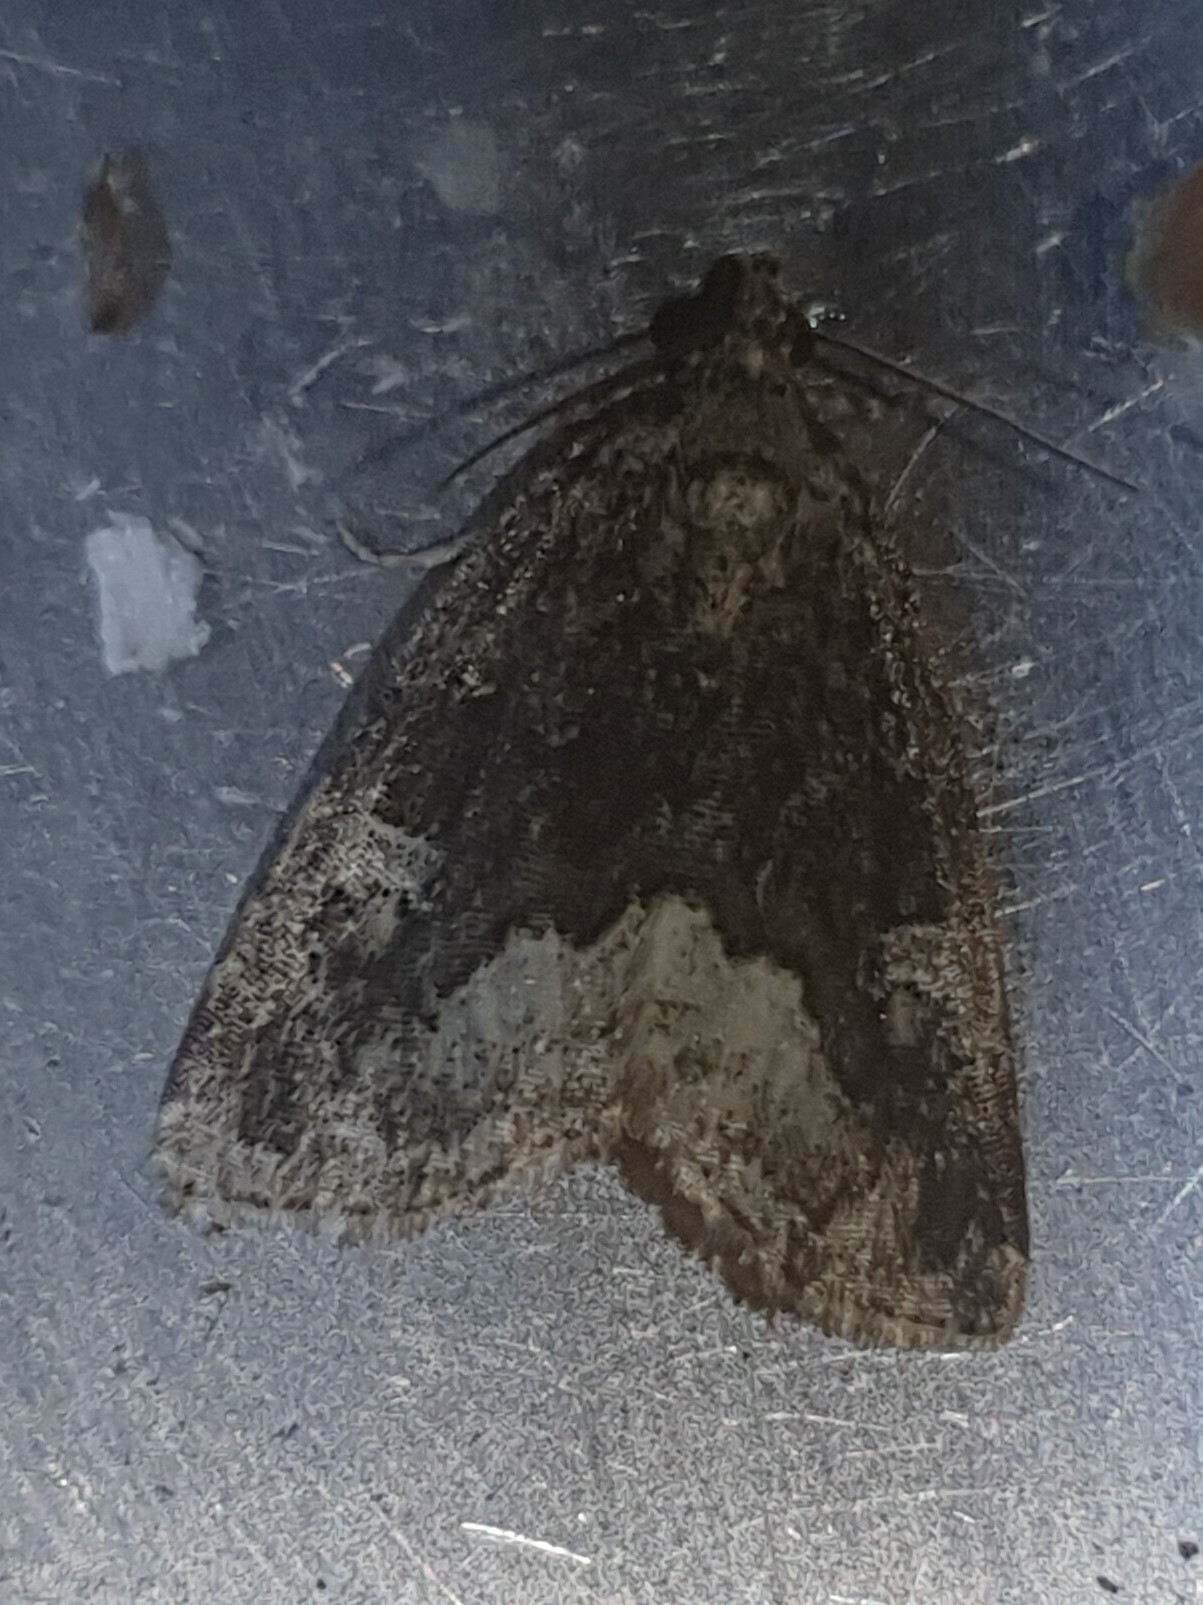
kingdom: Animalia
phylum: Arthropoda
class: Insecta
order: Lepidoptera
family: Noctuidae
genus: Deltote
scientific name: Deltote pygarga
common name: Marbled white spot
